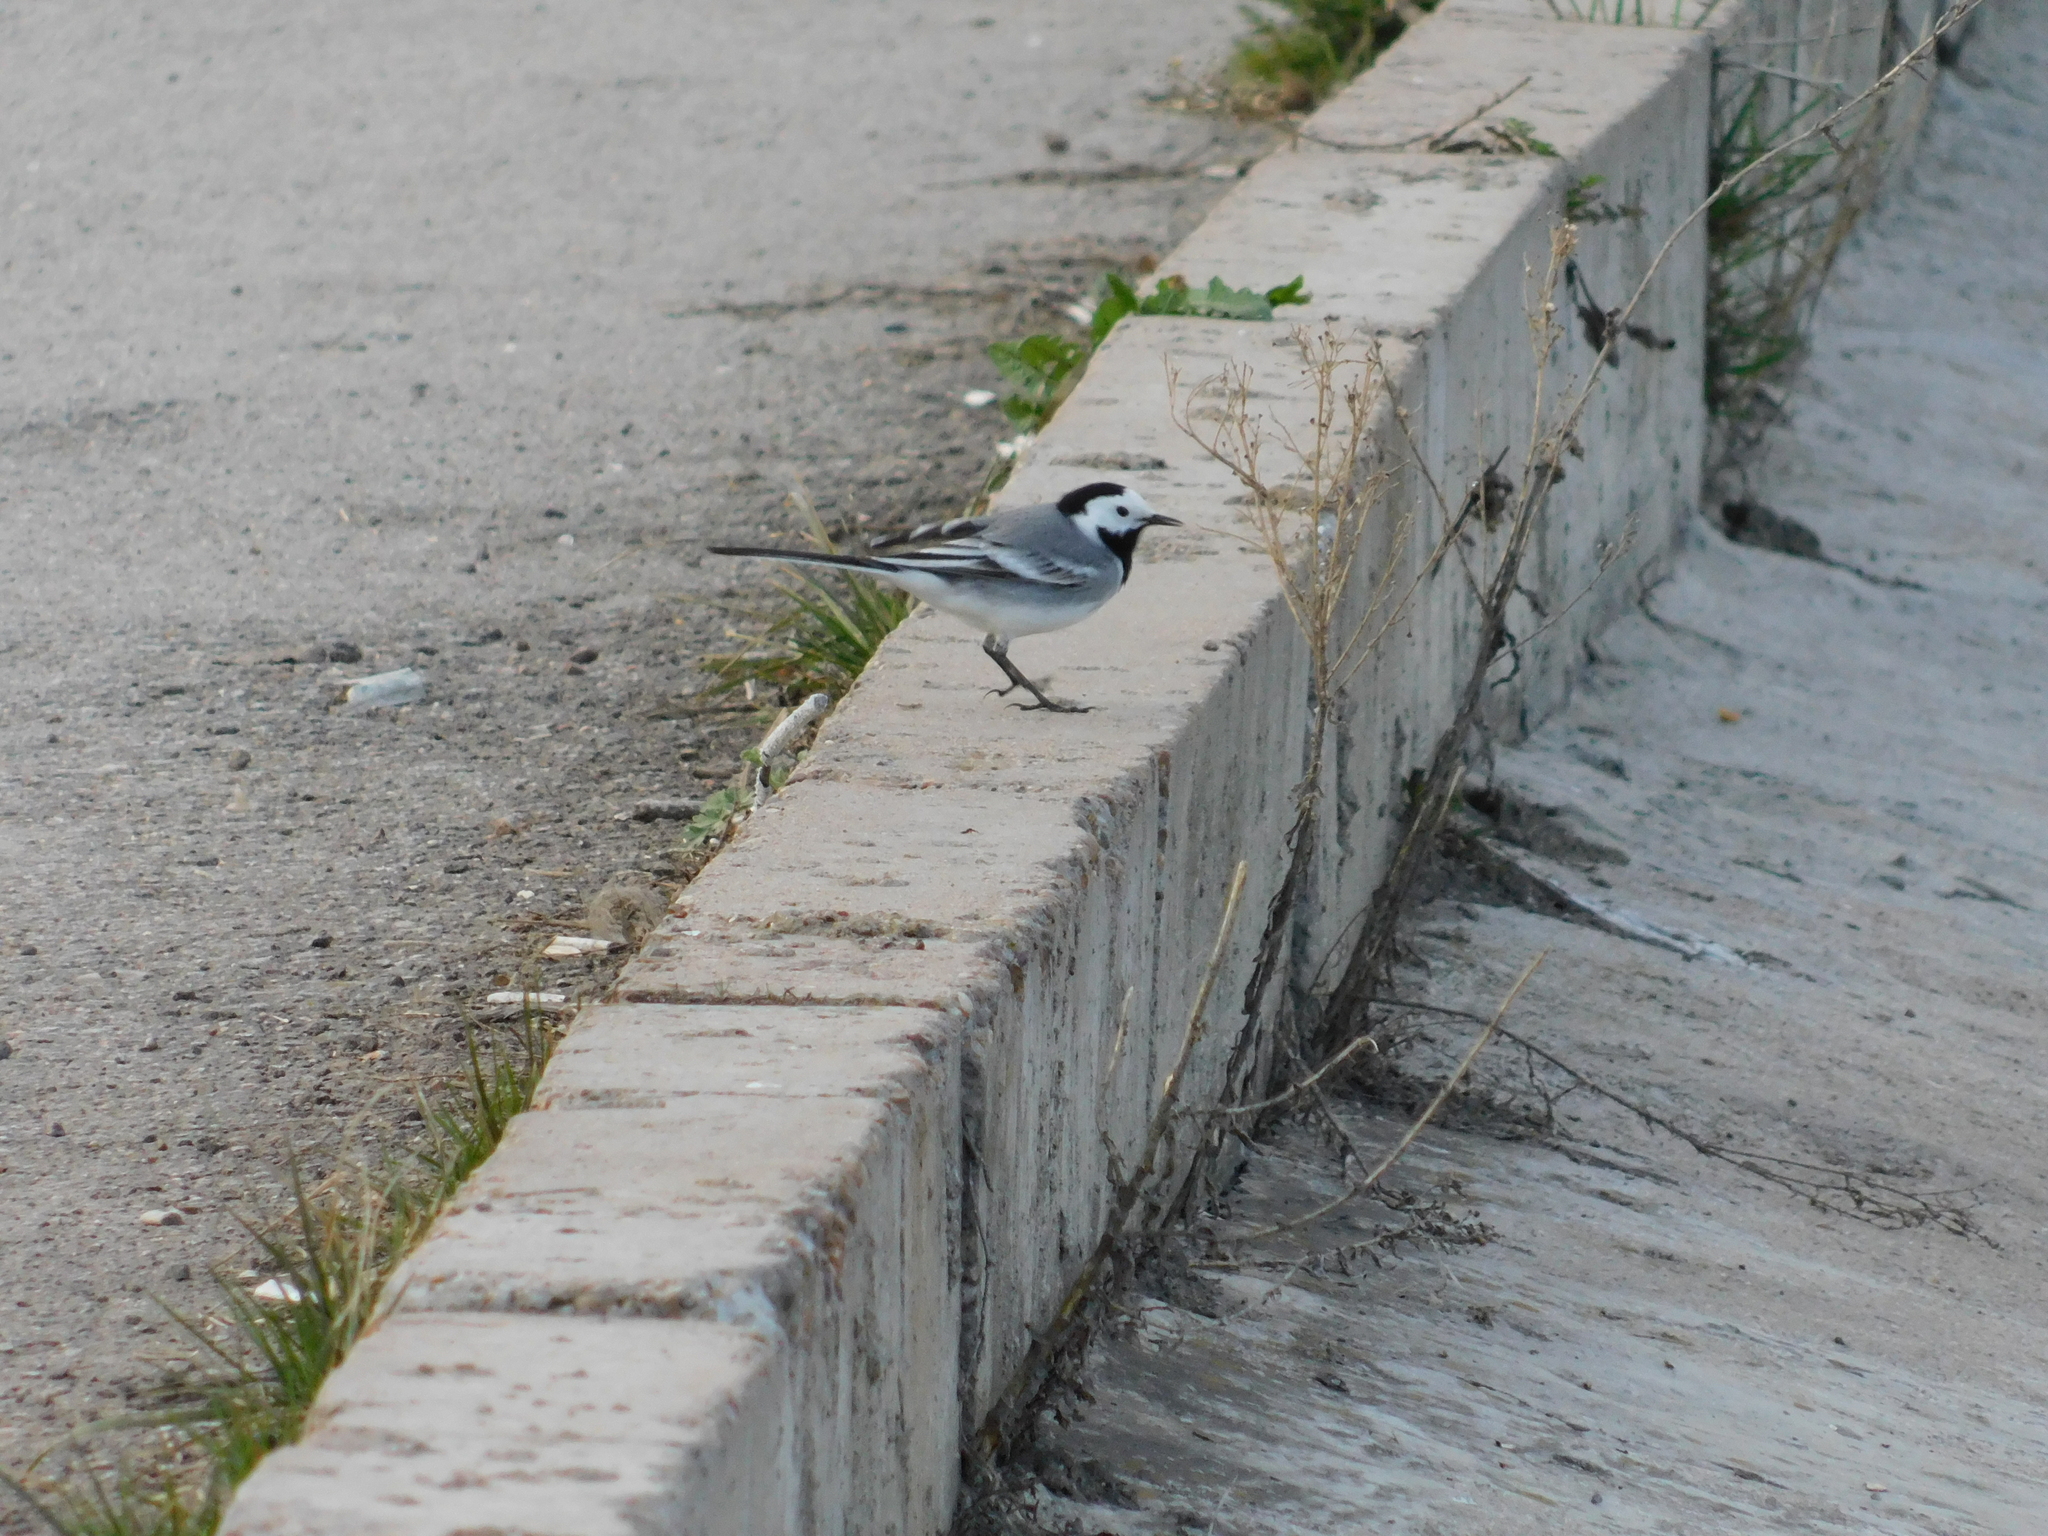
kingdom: Animalia
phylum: Chordata
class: Aves
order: Passeriformes
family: Motacillidae
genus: Motacilla
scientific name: Motacilla alba
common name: White wagtail
